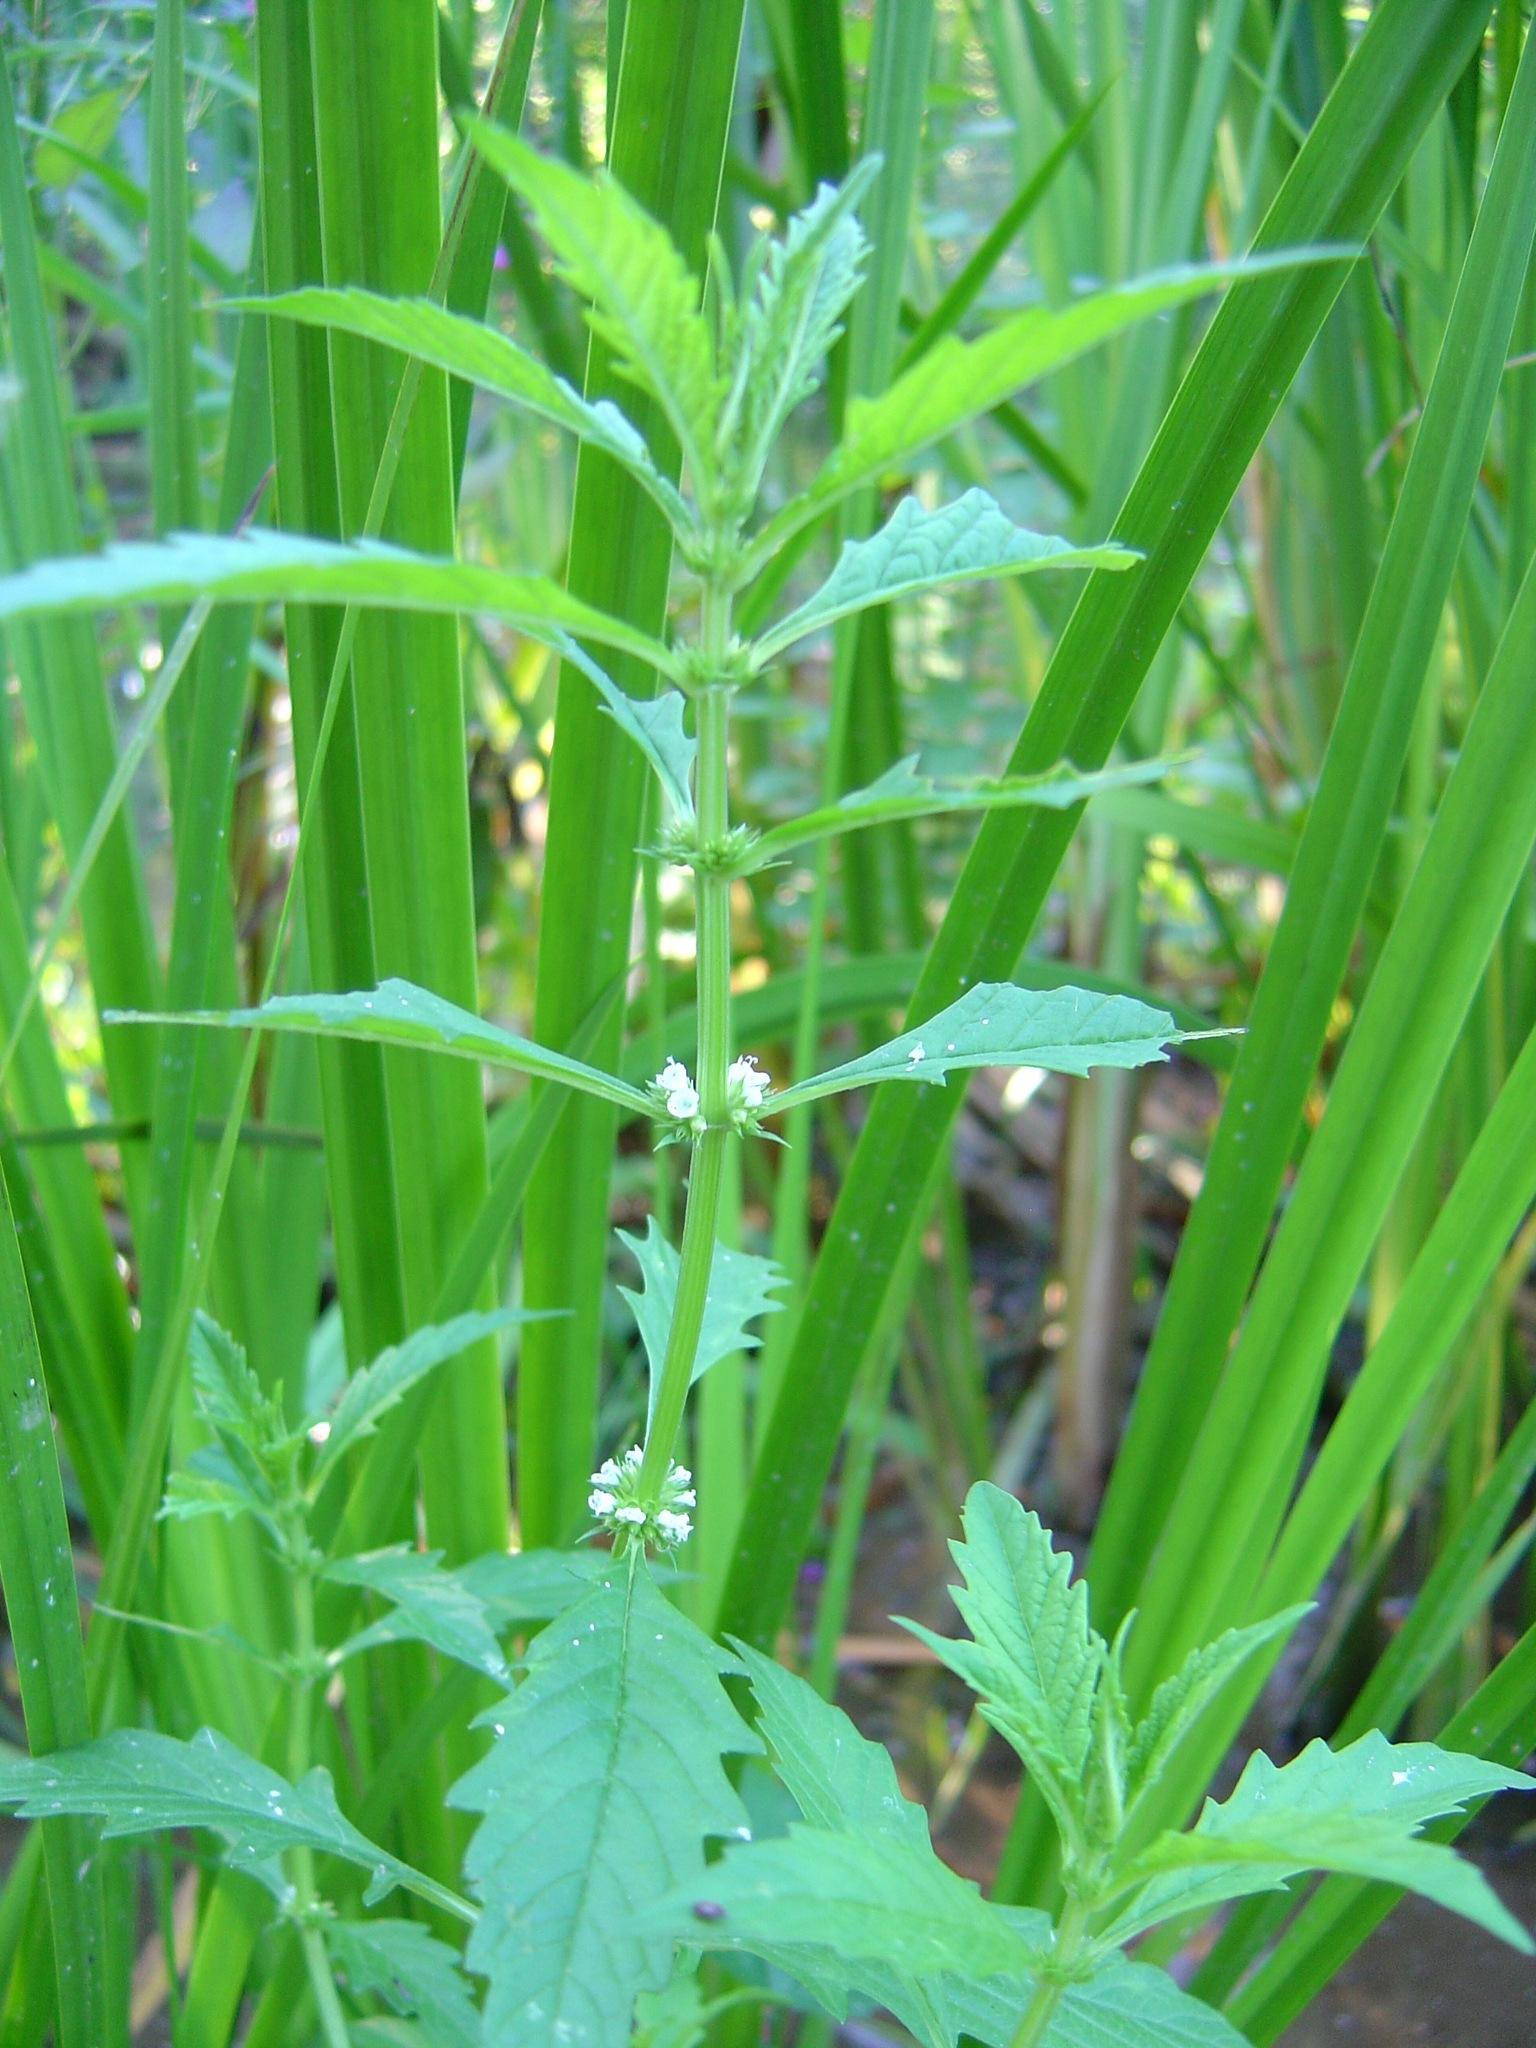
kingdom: Plantae
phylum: Tracheophyta
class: Magnoliopsida
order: Lamiales
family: Lamiaceae
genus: Lycopus
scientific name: Lycopus europaeus
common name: European bugleweed
